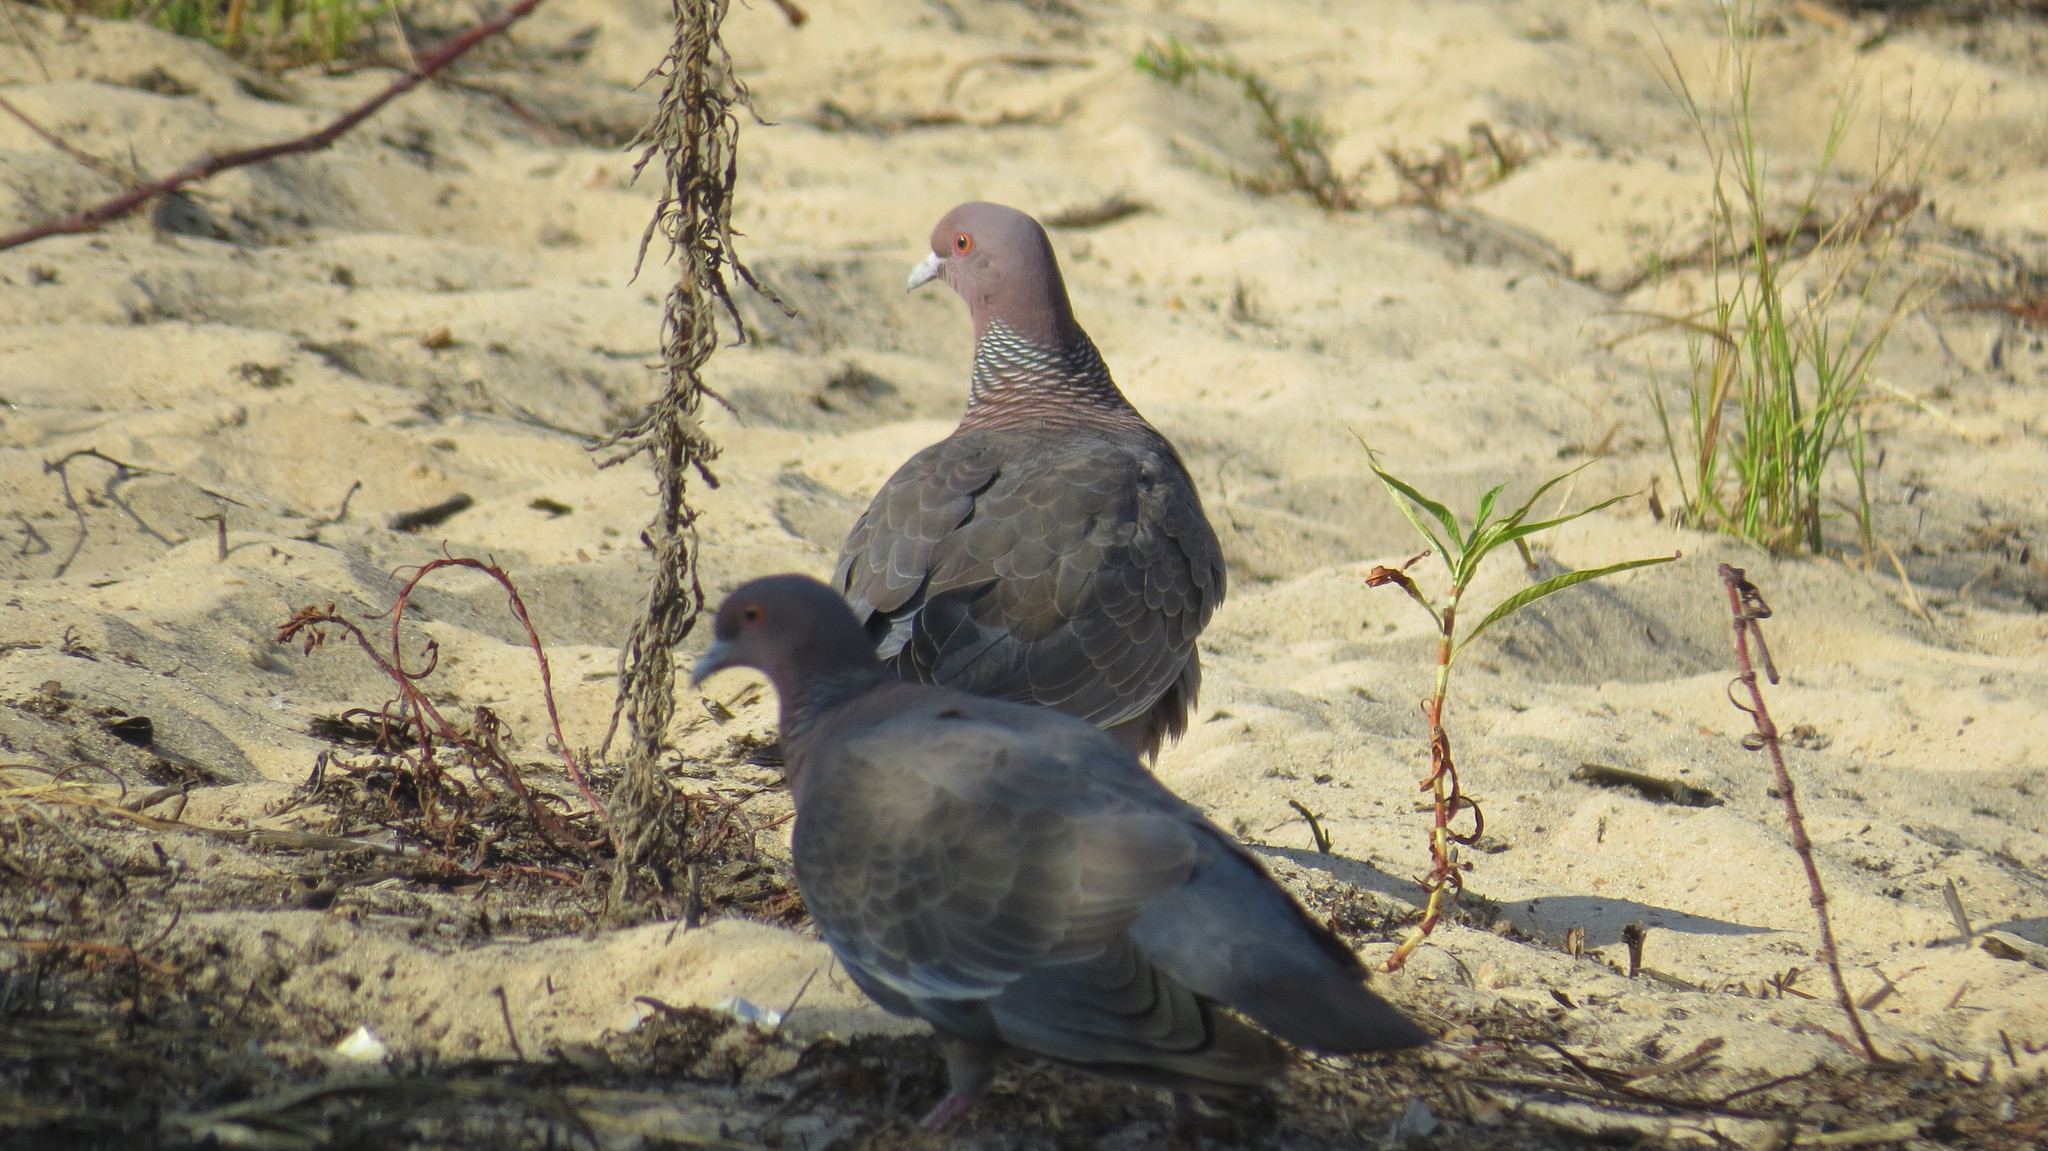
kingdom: Animalia
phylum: Chordata
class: Aves
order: Columbiformes
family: Columbidae
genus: Patagioenas
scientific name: Patagioenas picazuro
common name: Picazuro pigeon
